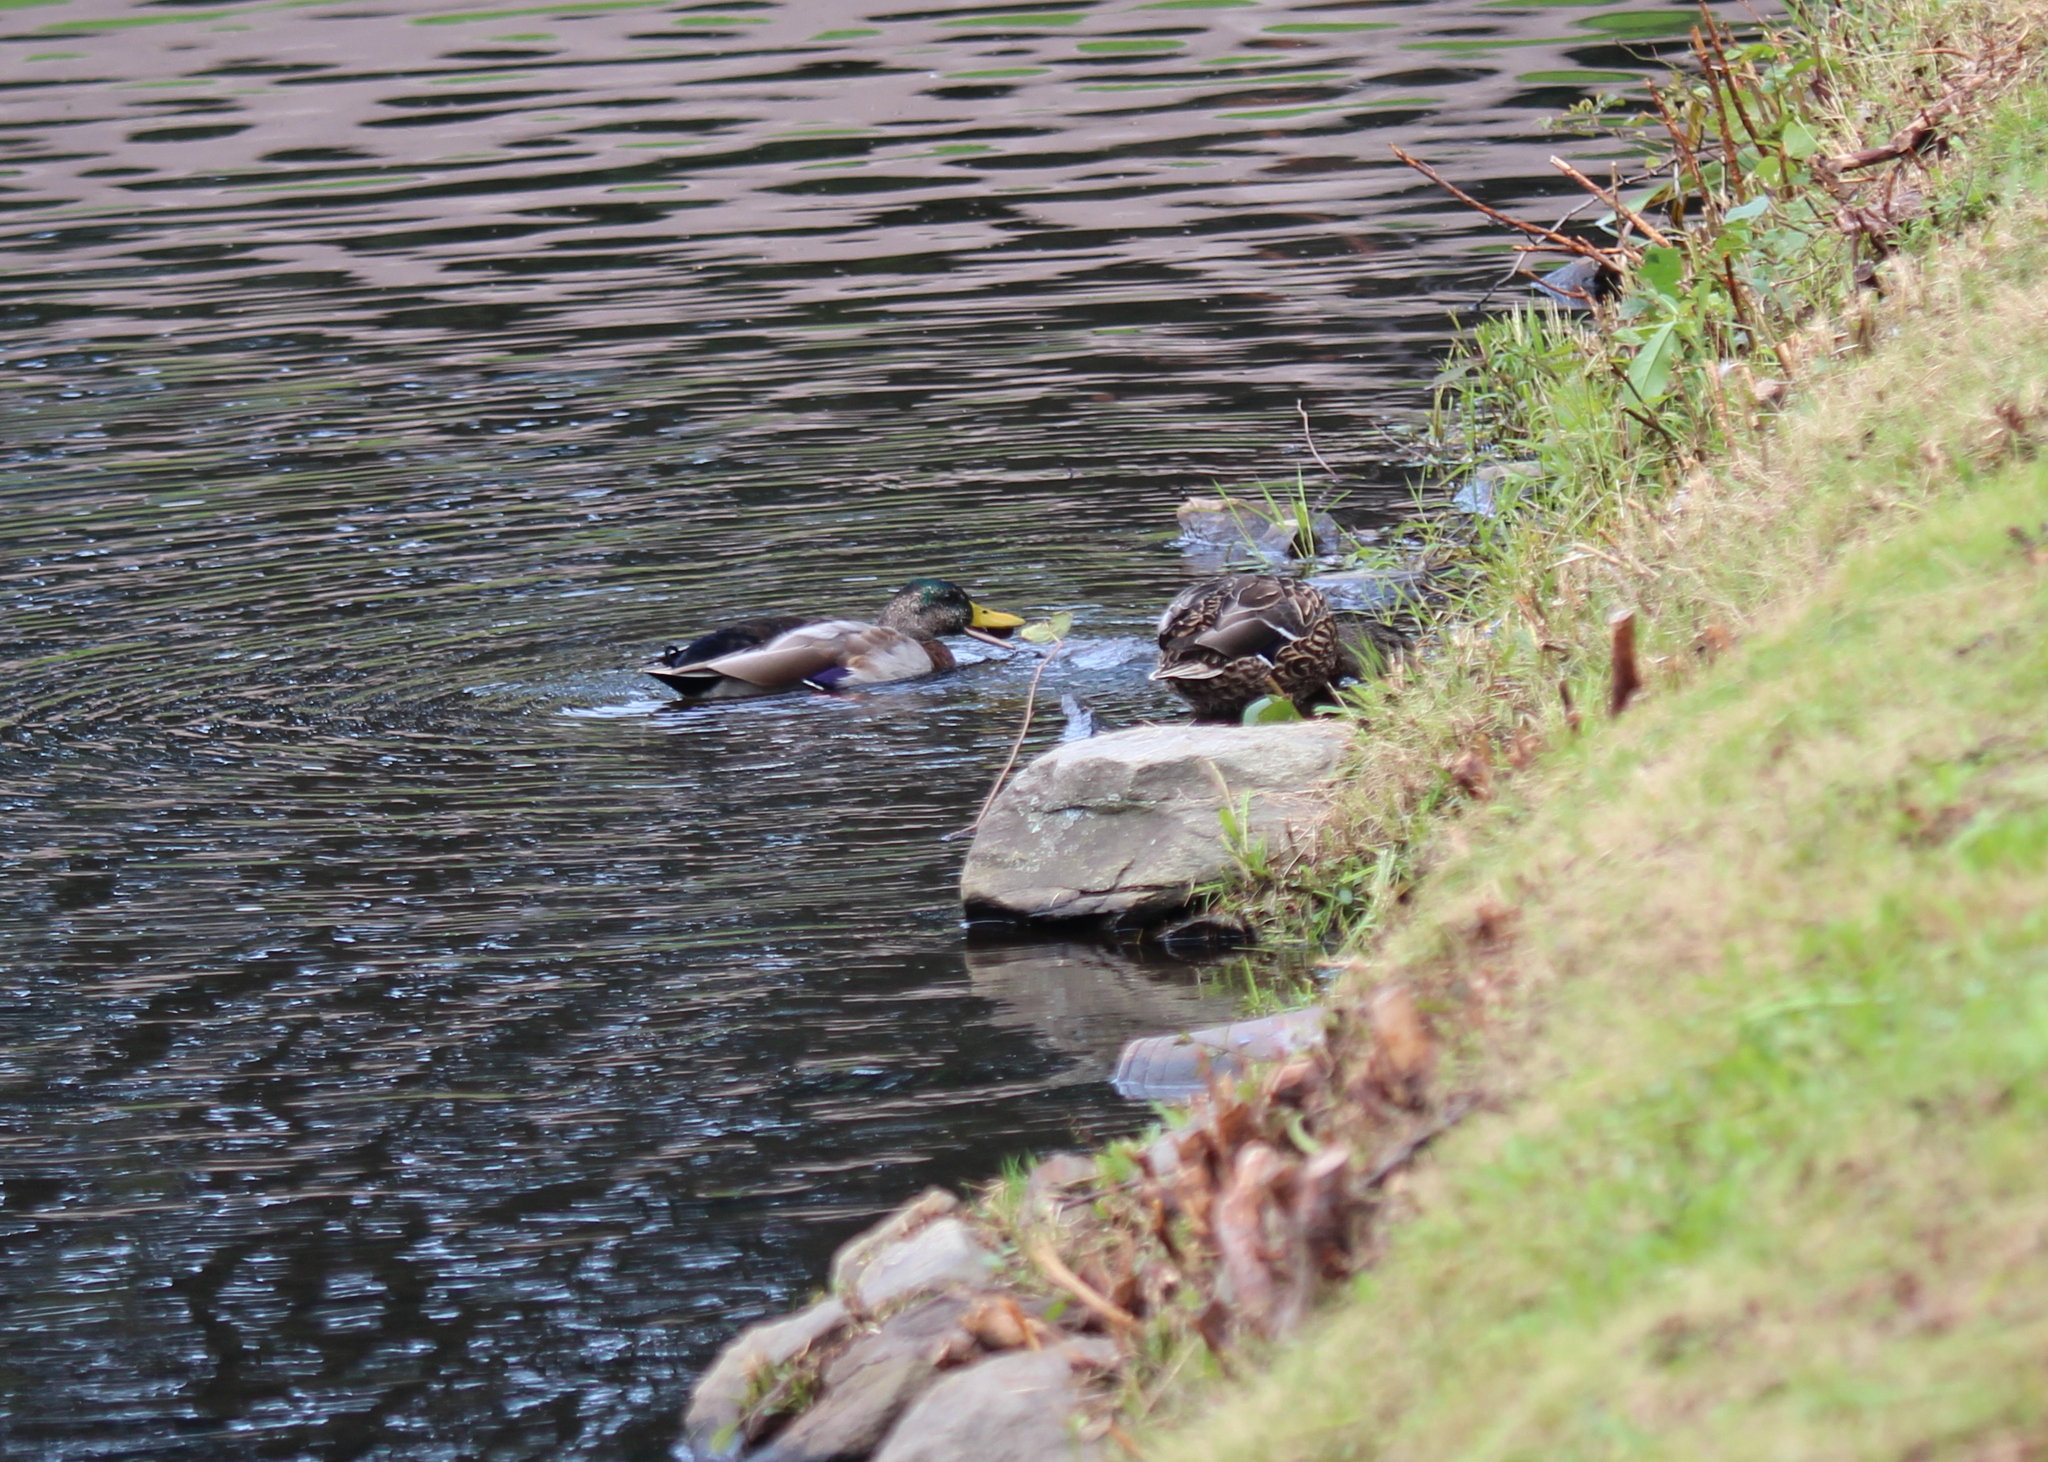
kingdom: Animalia
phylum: Chordata
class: Aves
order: Anseriformes
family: Anatidae
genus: Anas
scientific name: Anas platyrhynchos
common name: Mallard
